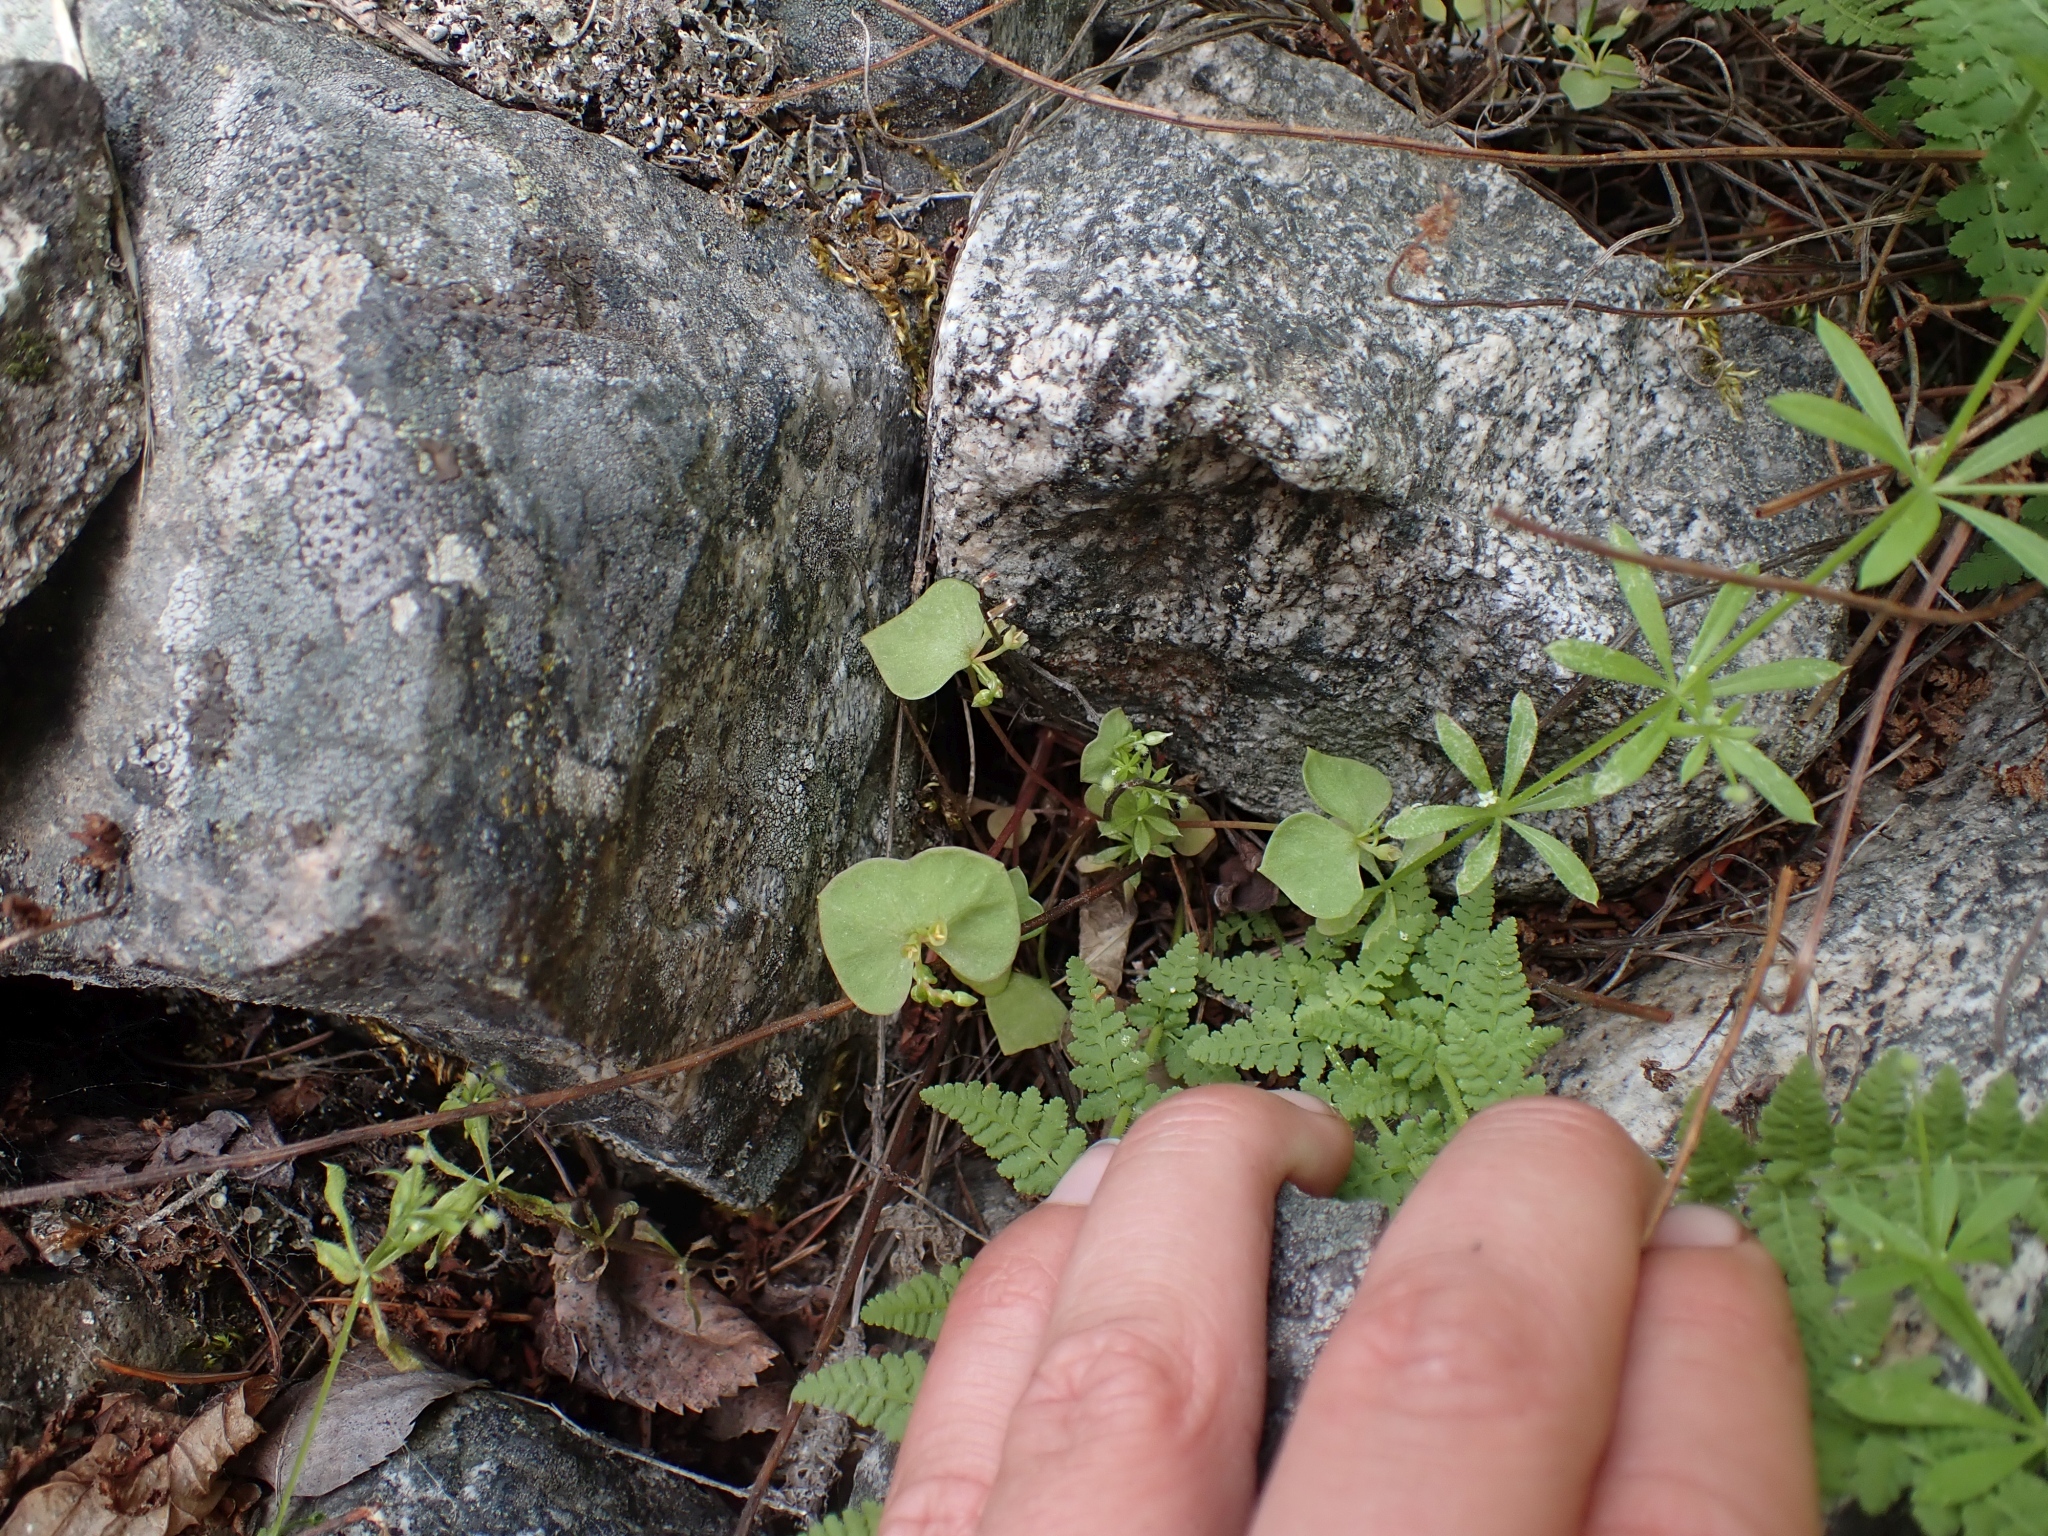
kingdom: Plantae
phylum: Tracheophyta
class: Magnoliopsida
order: Caryophyllales
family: Montiaceae
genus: Claytonia
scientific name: Claytonia rubra
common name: Erubescent miner's-lettuce
